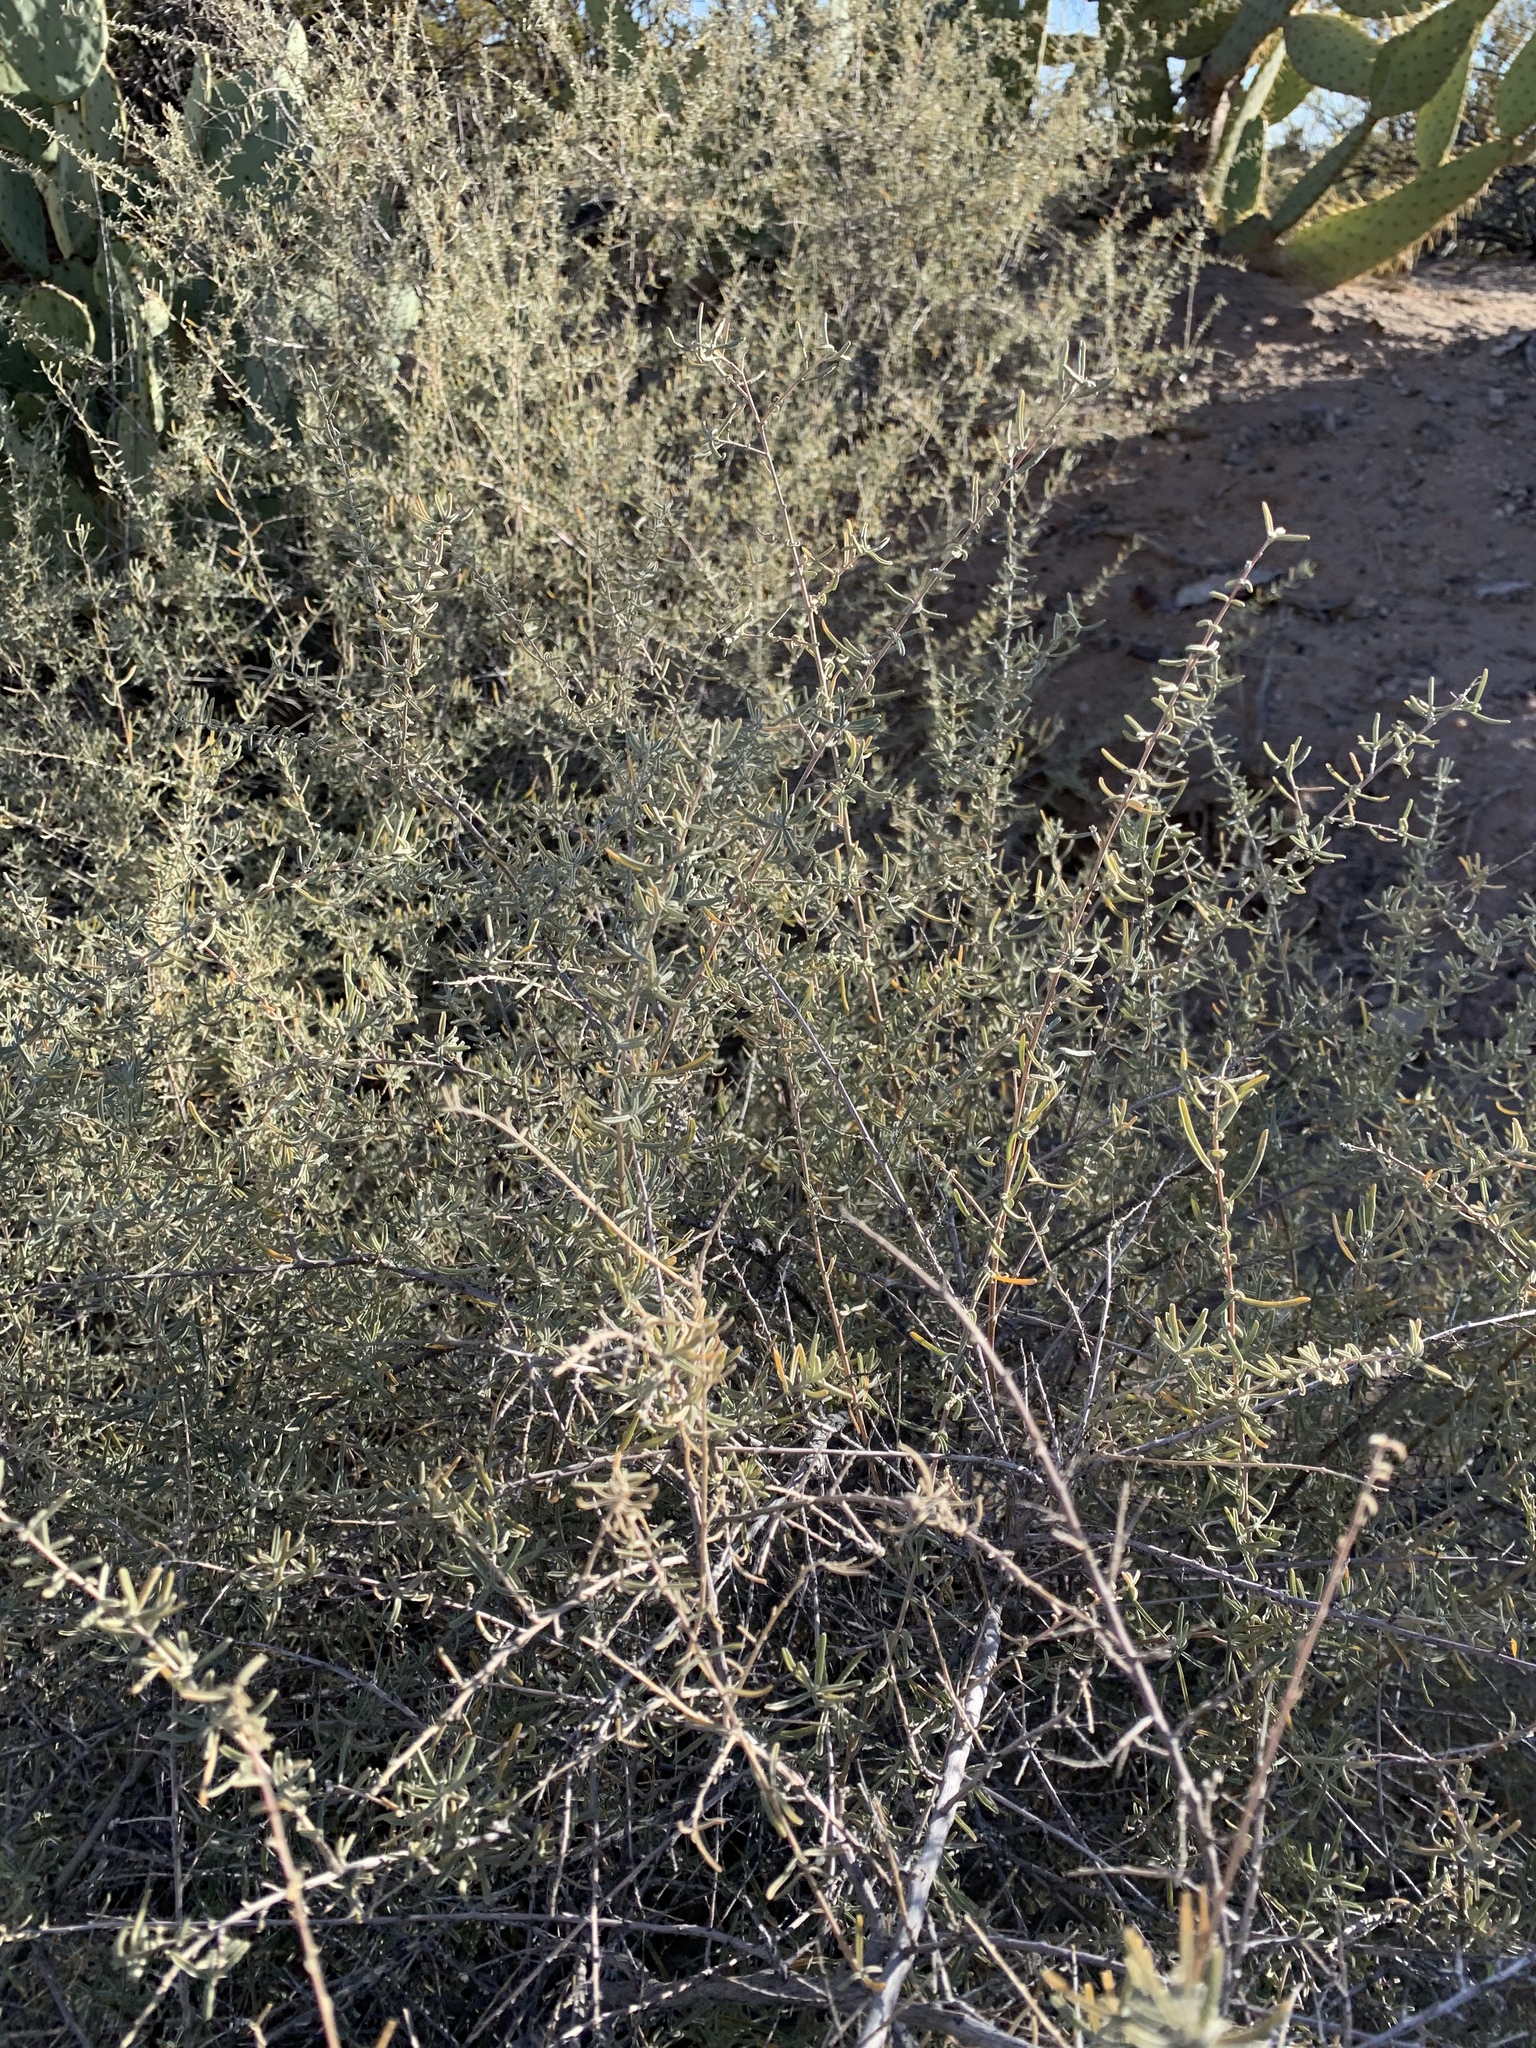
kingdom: Plantae
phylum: Tracheophyta
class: Magnoliopsida
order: Caryophyllales
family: Amaranthaceae
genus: Atriplex
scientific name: Atriplex canescens
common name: Four-wing saltbush
